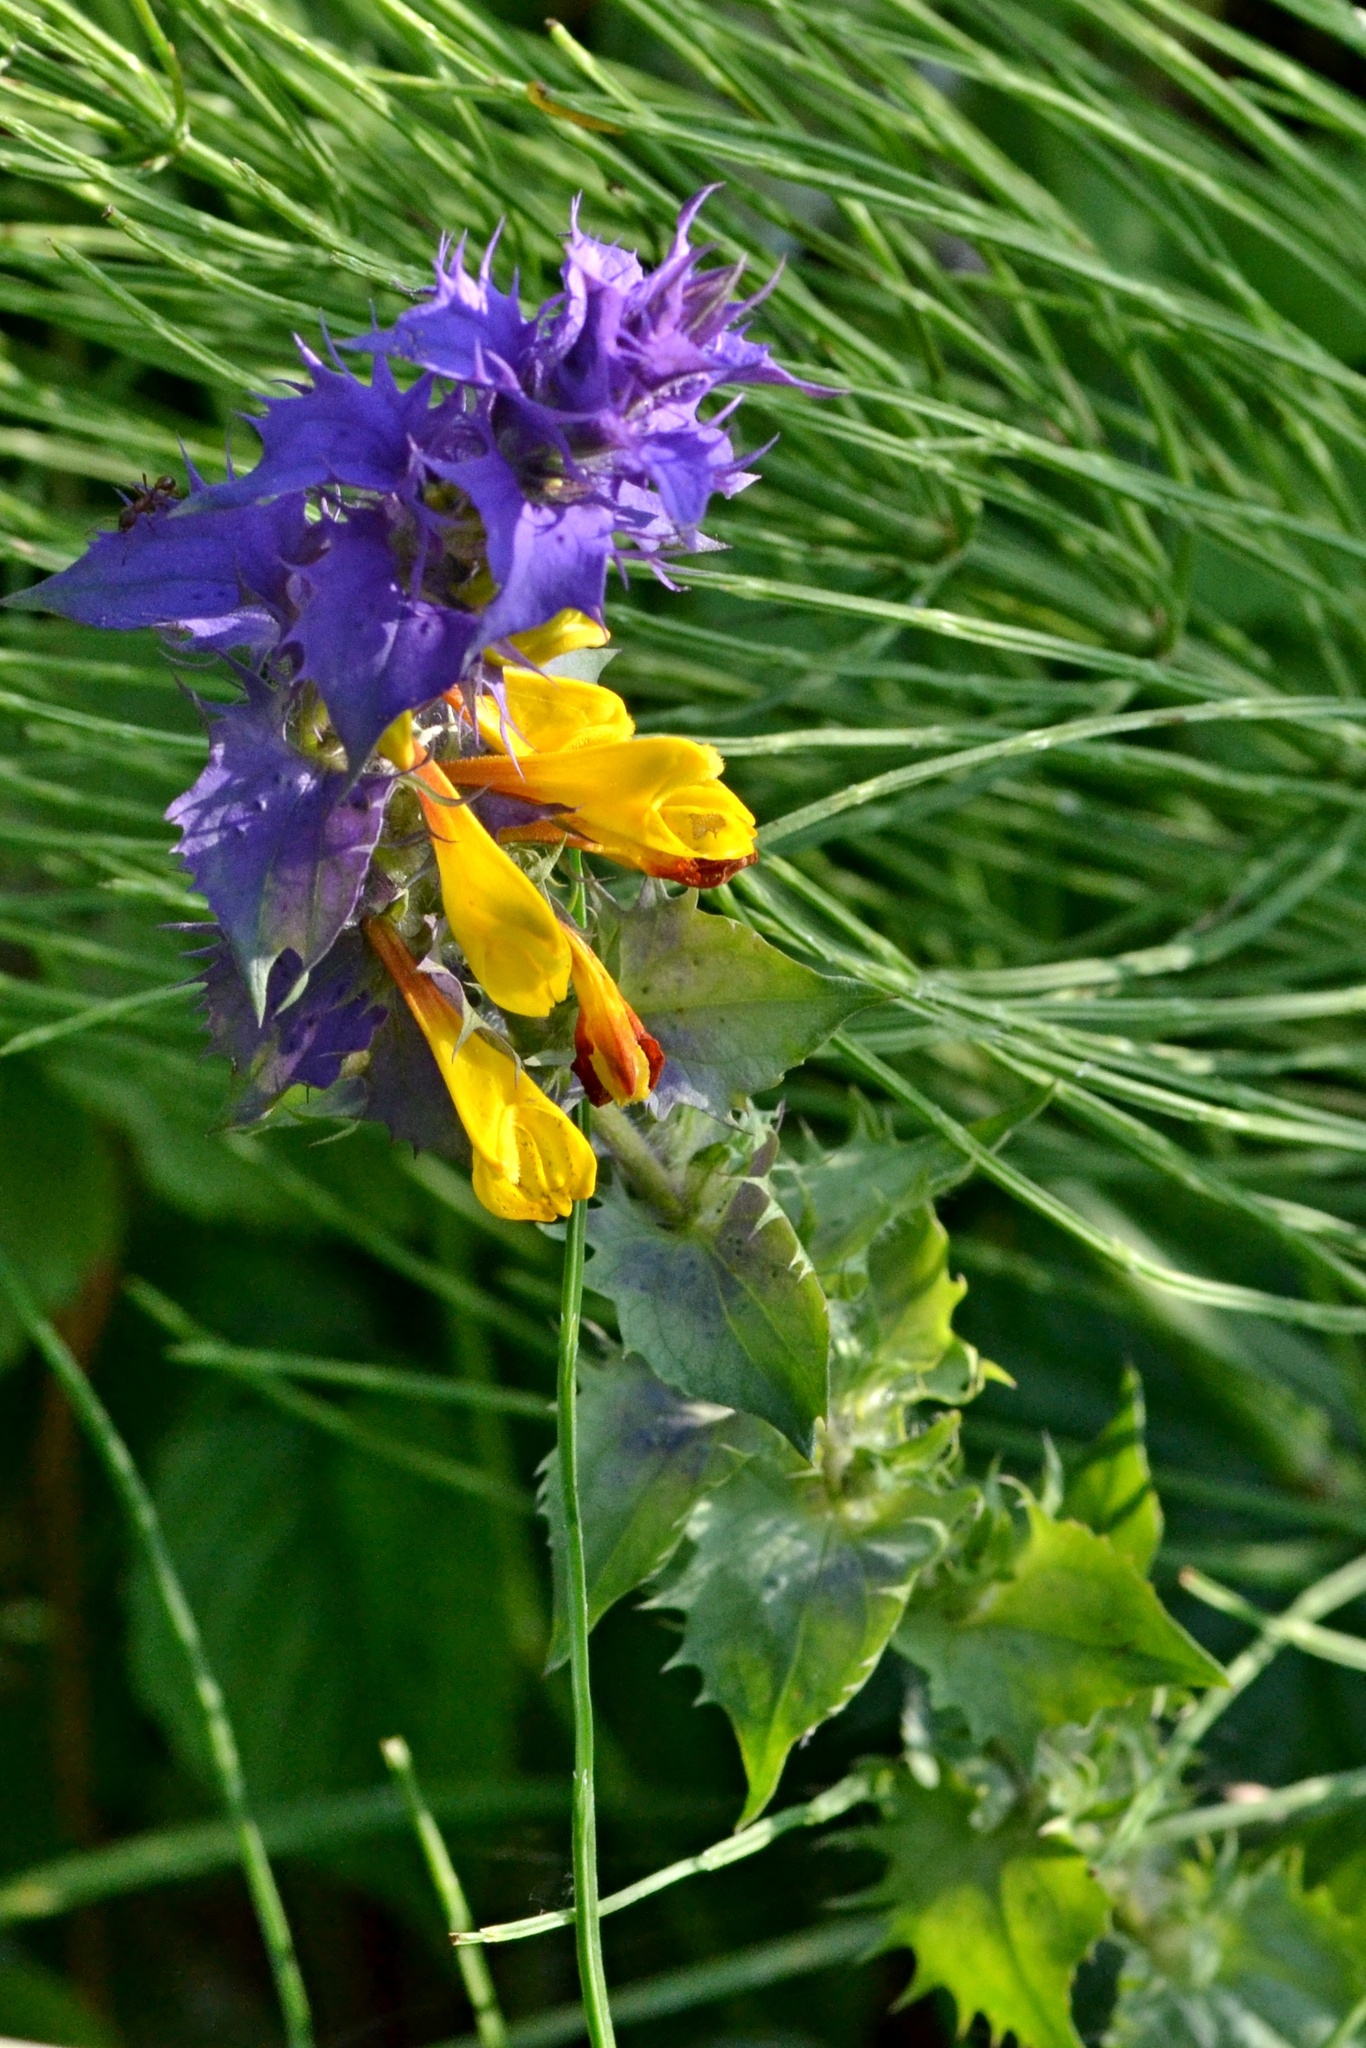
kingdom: Plantae
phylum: Tracheophyta
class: Magnoliopsida
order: Lamiales
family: Orobanchaceae
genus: Melampyrum
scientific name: Melampyrum nemorosum
